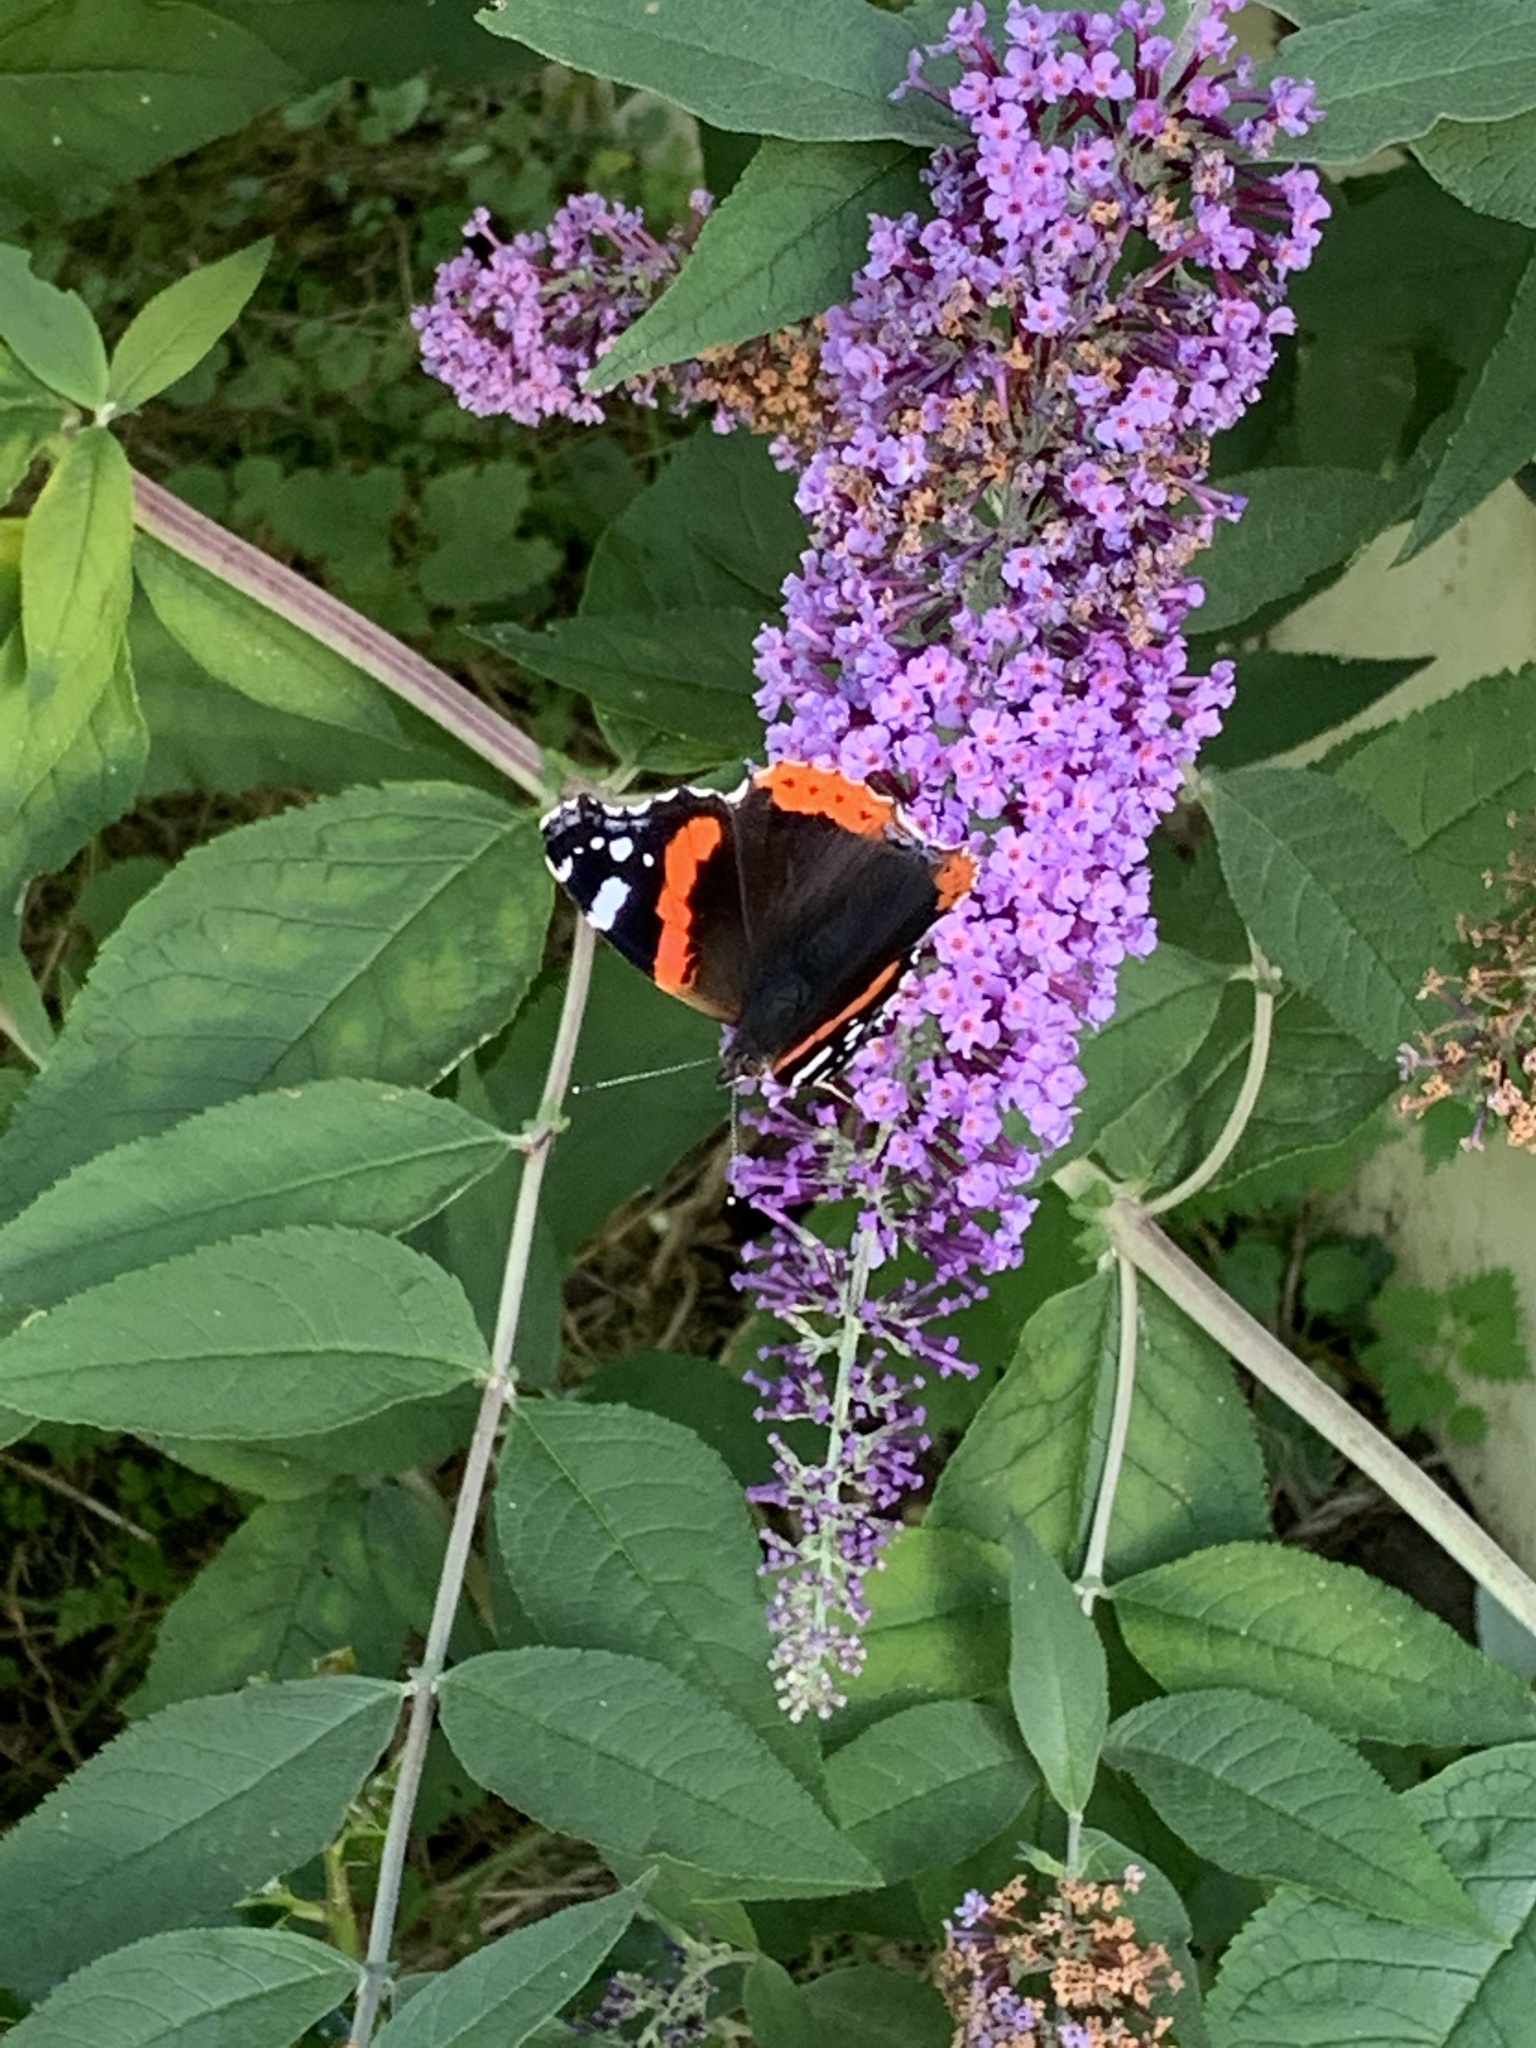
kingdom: Animalia
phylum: Arthropoda
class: Insecta
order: Lepidoptera
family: Nymphalidae
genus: Vanessa
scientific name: Vanessa atalanta
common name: Red admiral
